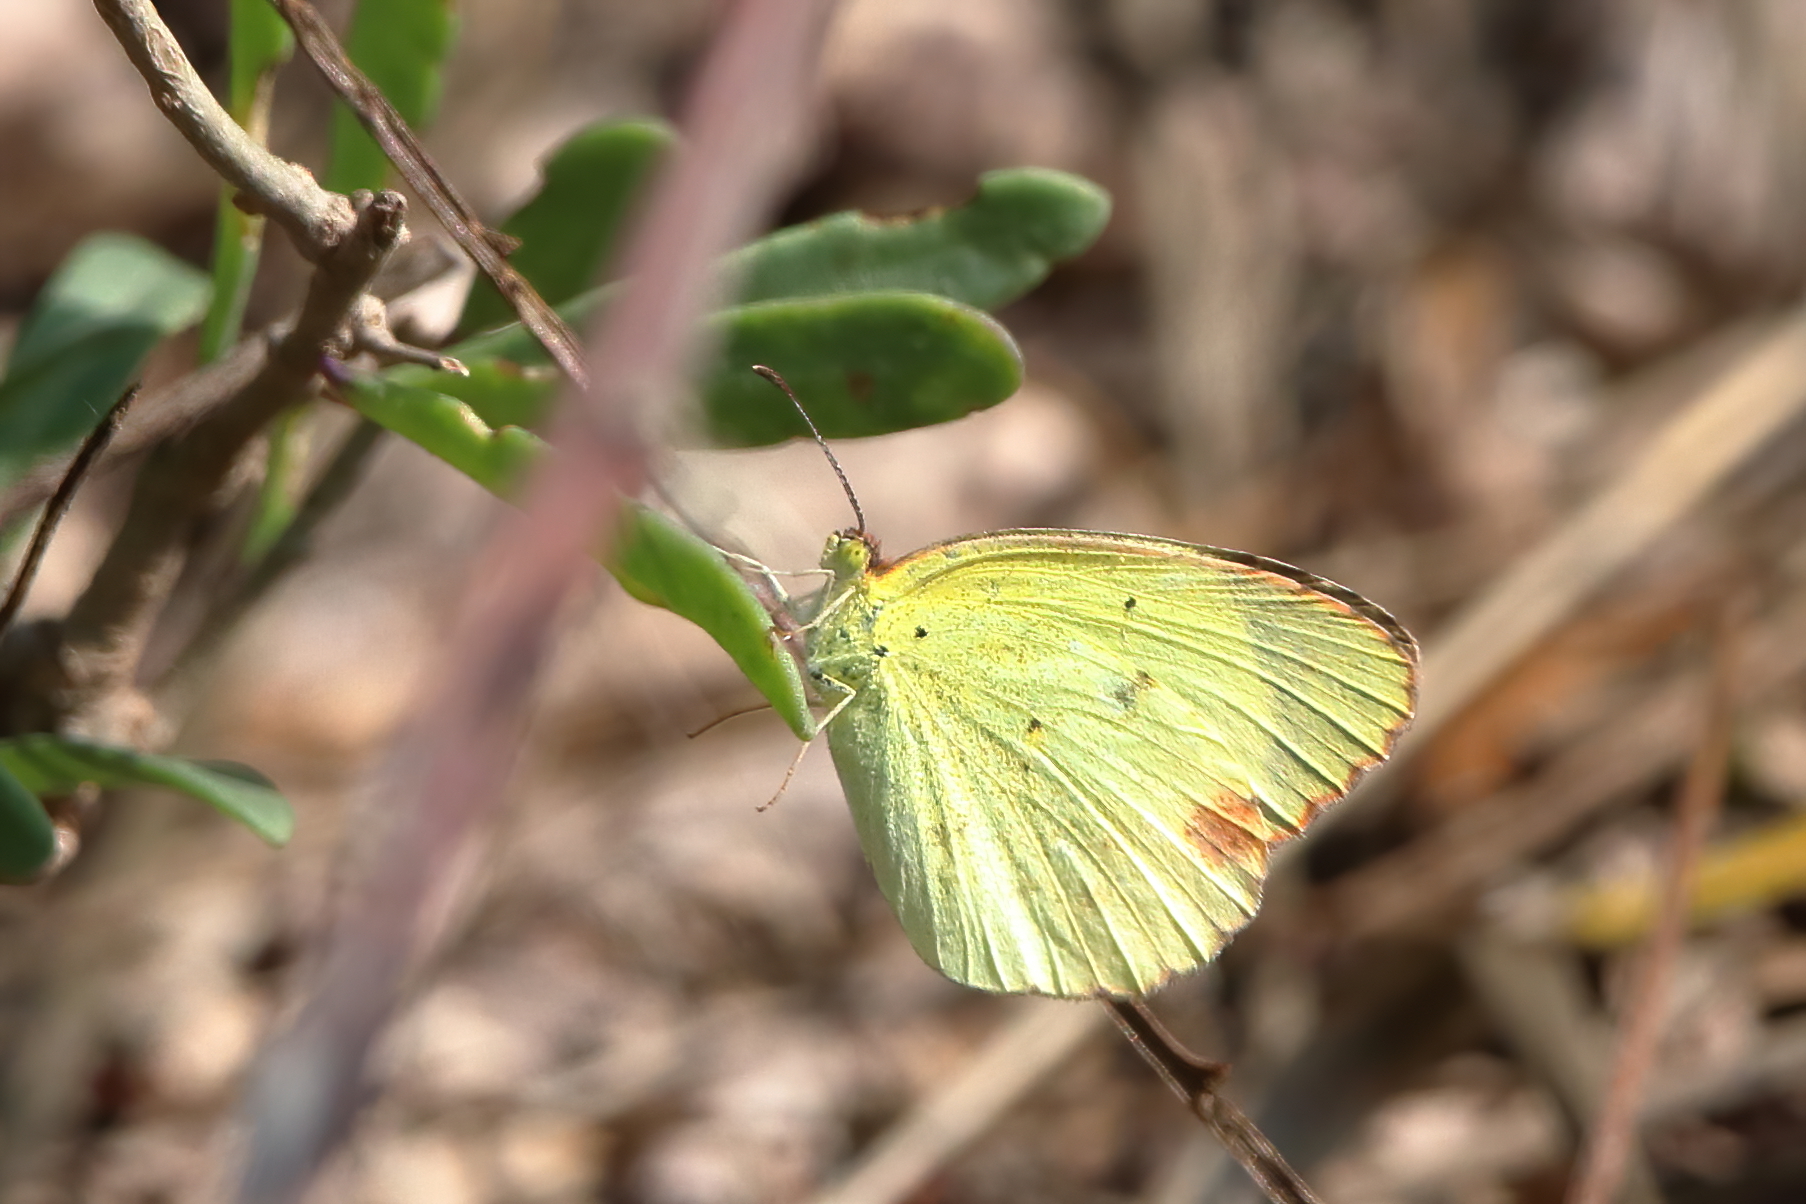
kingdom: Animalia
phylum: Arthropoda
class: Insecta
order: Lepidoptera
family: Pieridae
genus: Pyrisitia
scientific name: Pyrisitia lisa
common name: Little yellow
